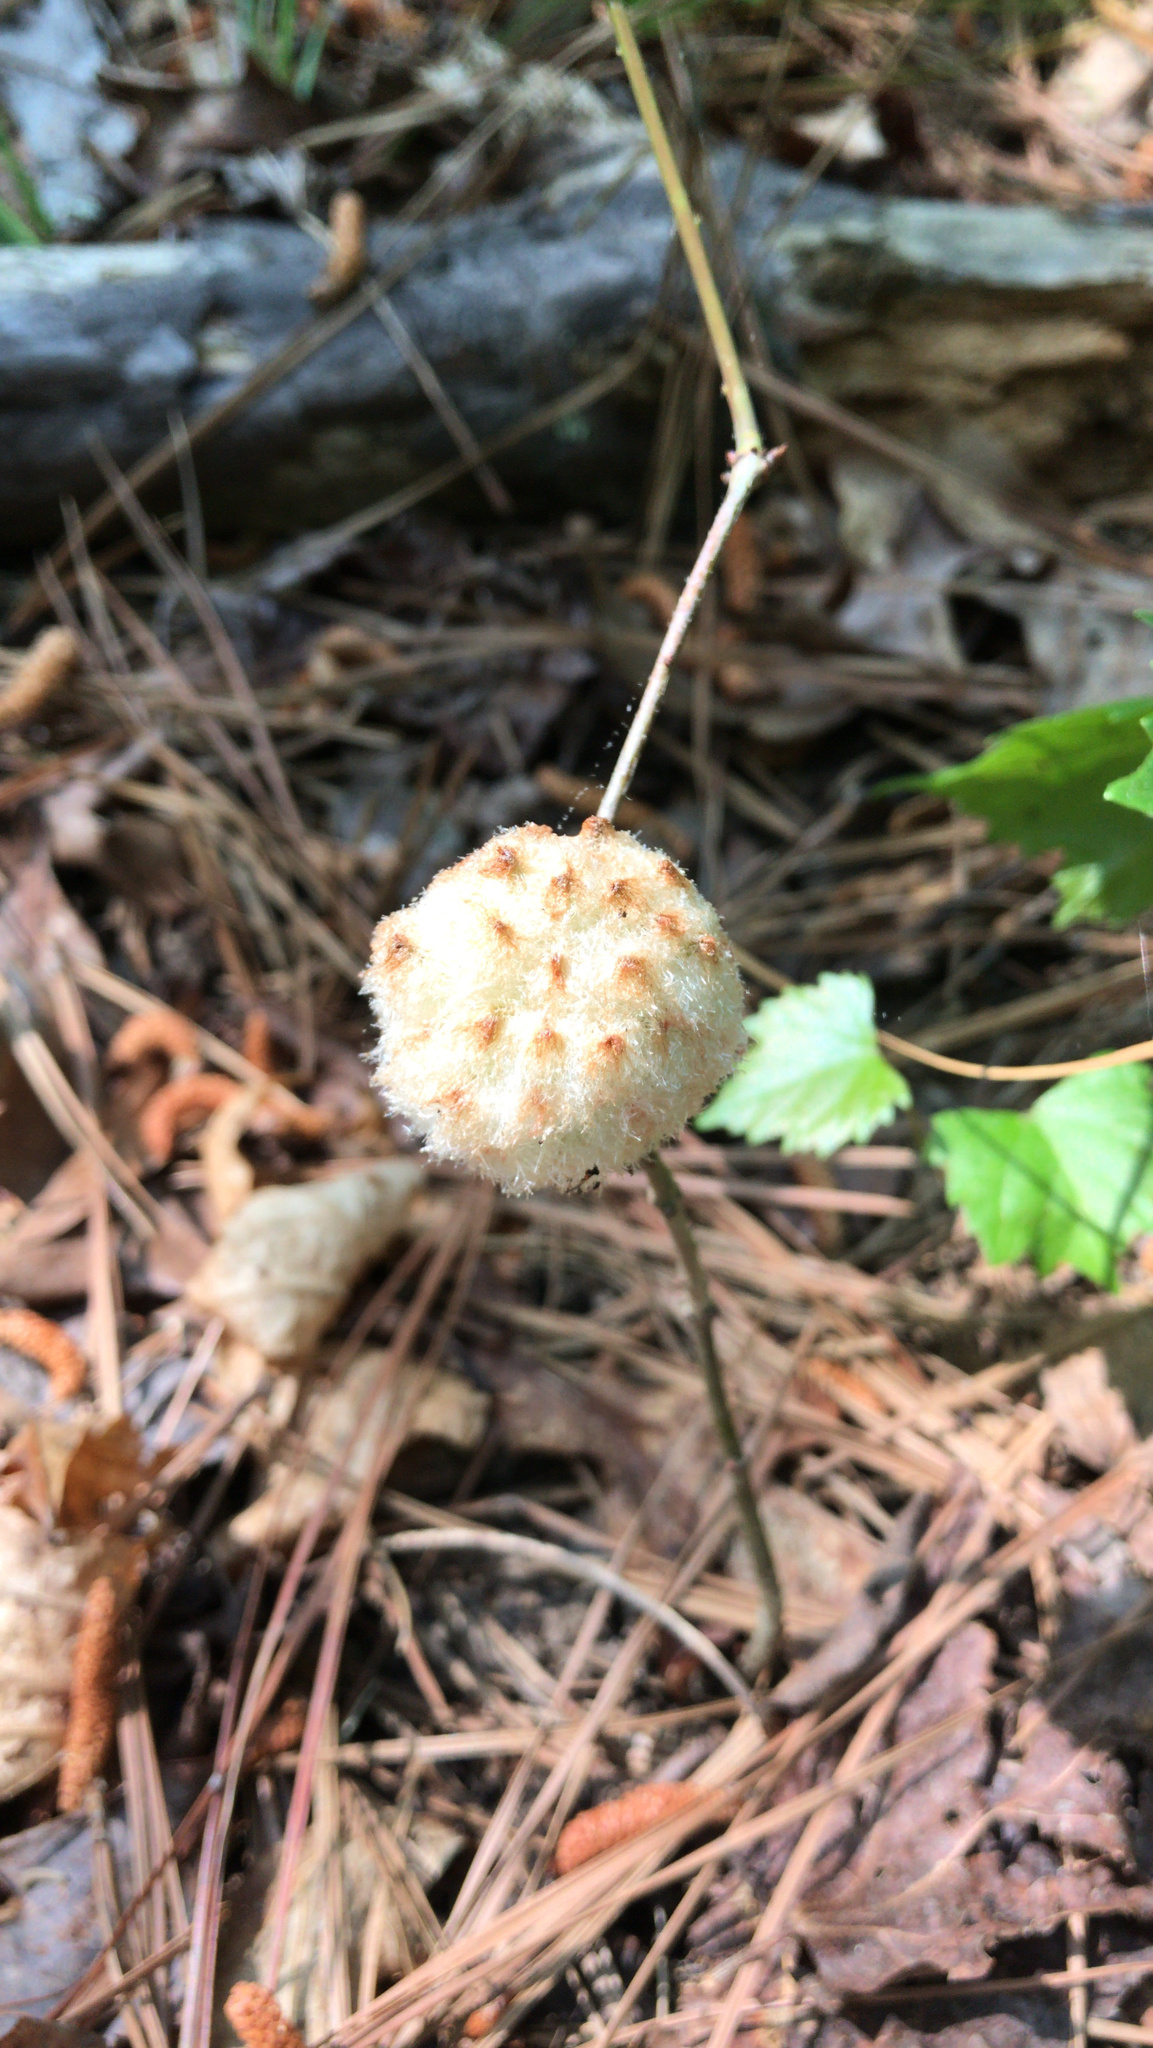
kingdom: Animalia
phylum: Arthropoda
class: Insecta
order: Hymenoptera
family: Cynipidae
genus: Callirhytis
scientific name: Callirhytis
